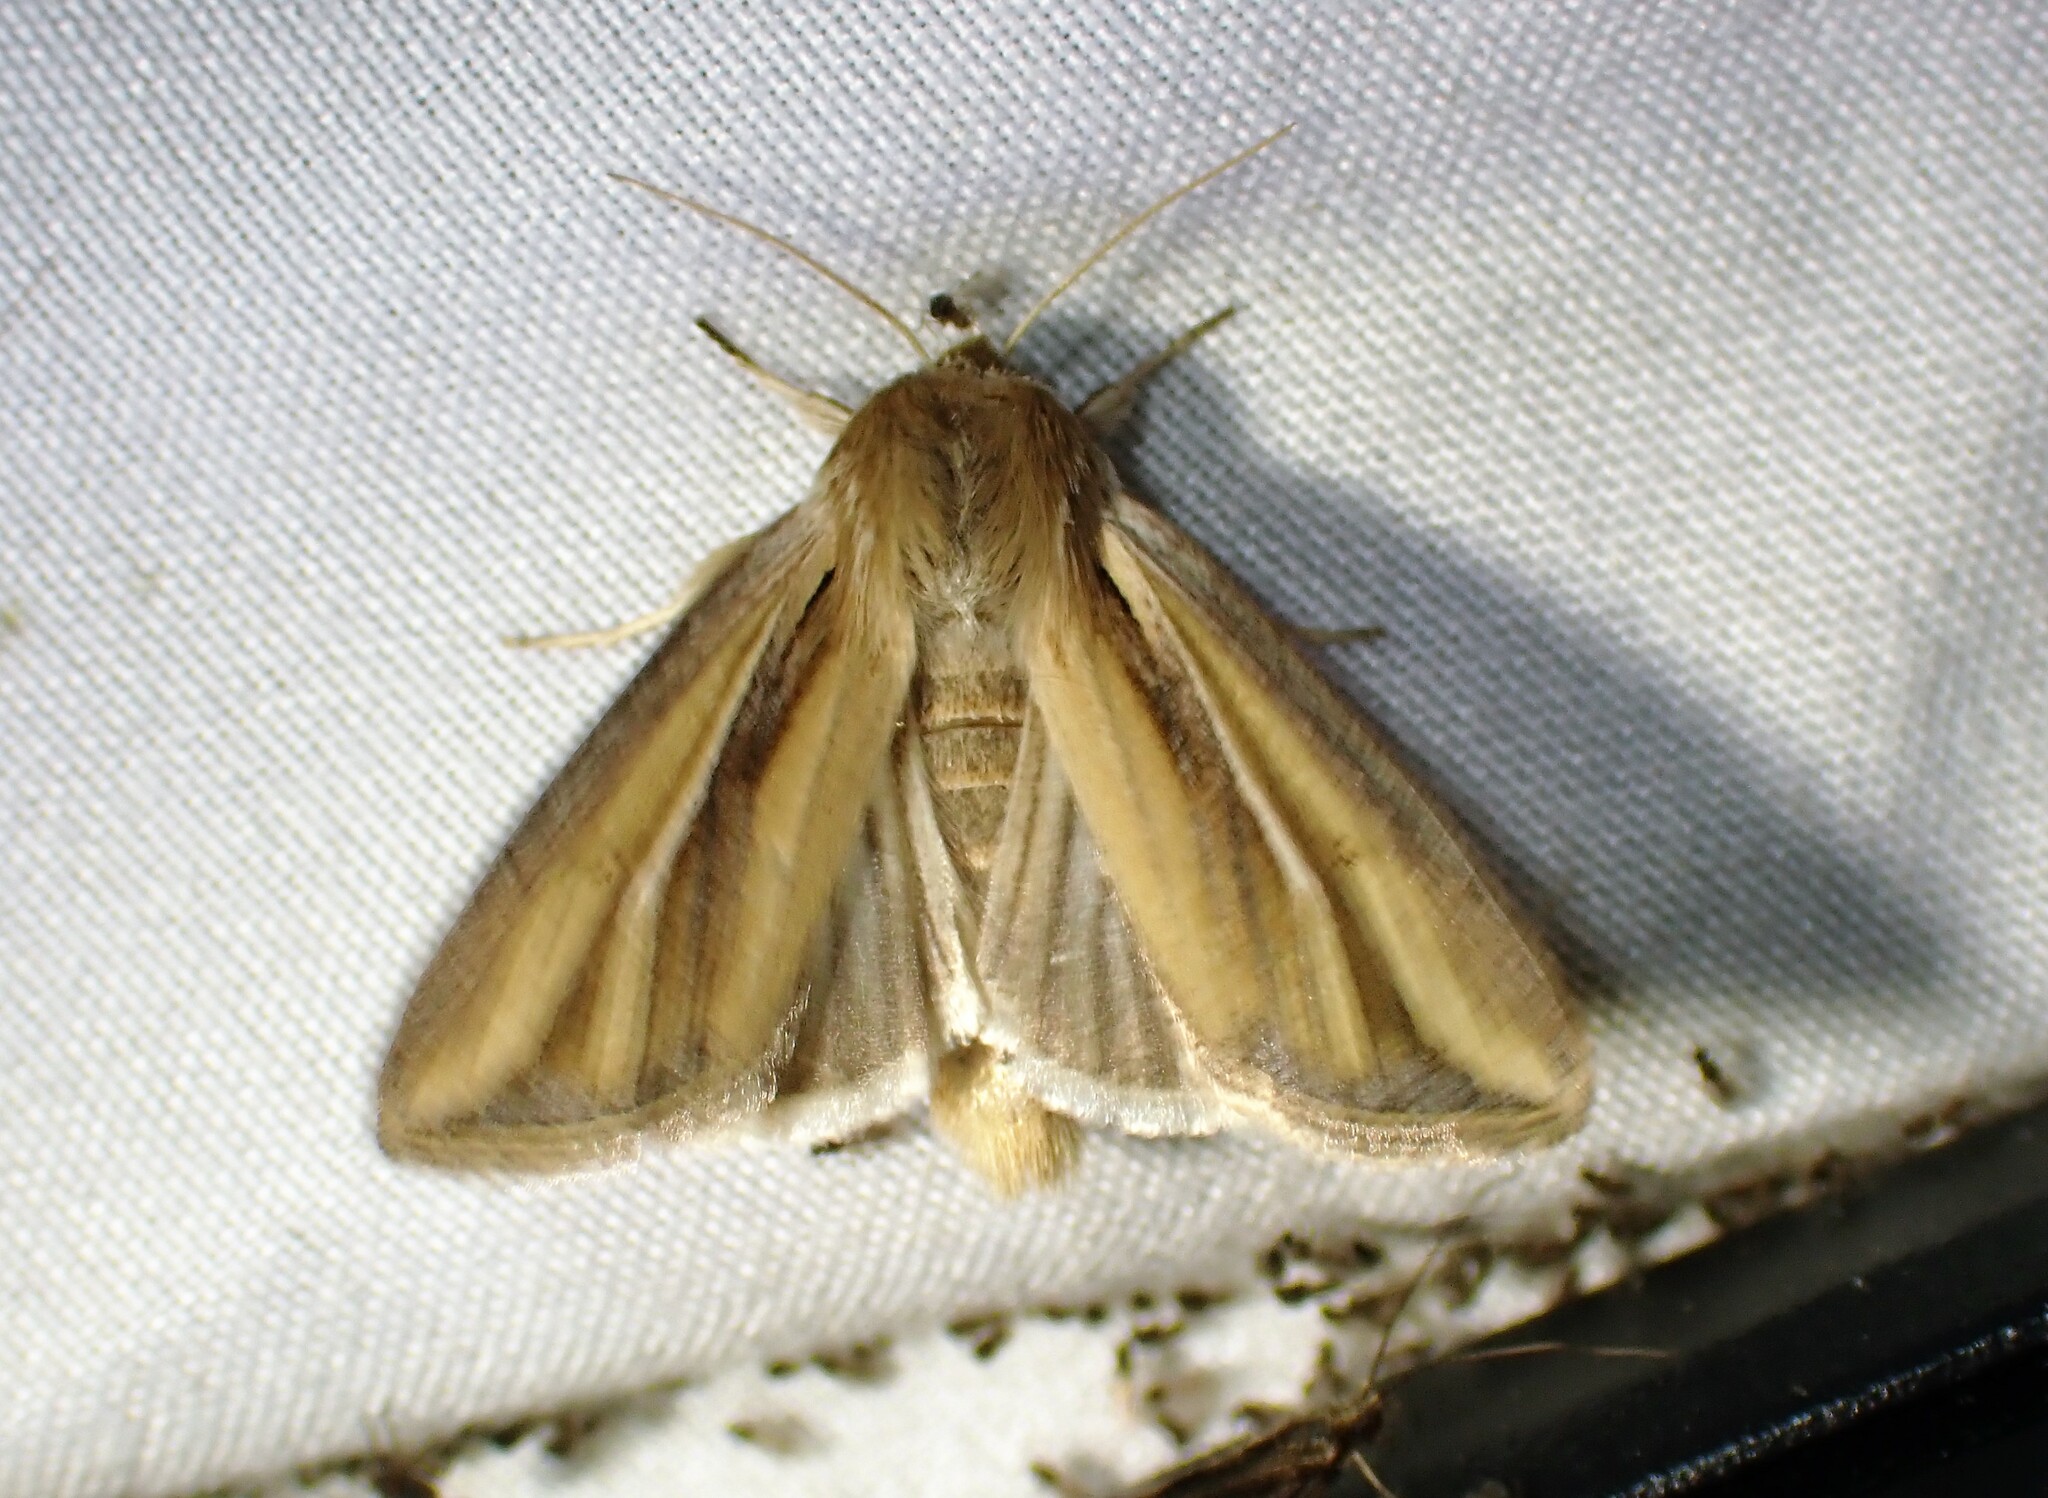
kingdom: Animalia
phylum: Arthropoda
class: Insecta
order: Lepidoptera
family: Noctuidae
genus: Dargida
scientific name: Dargida diffusa
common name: Wheat head armyworm
